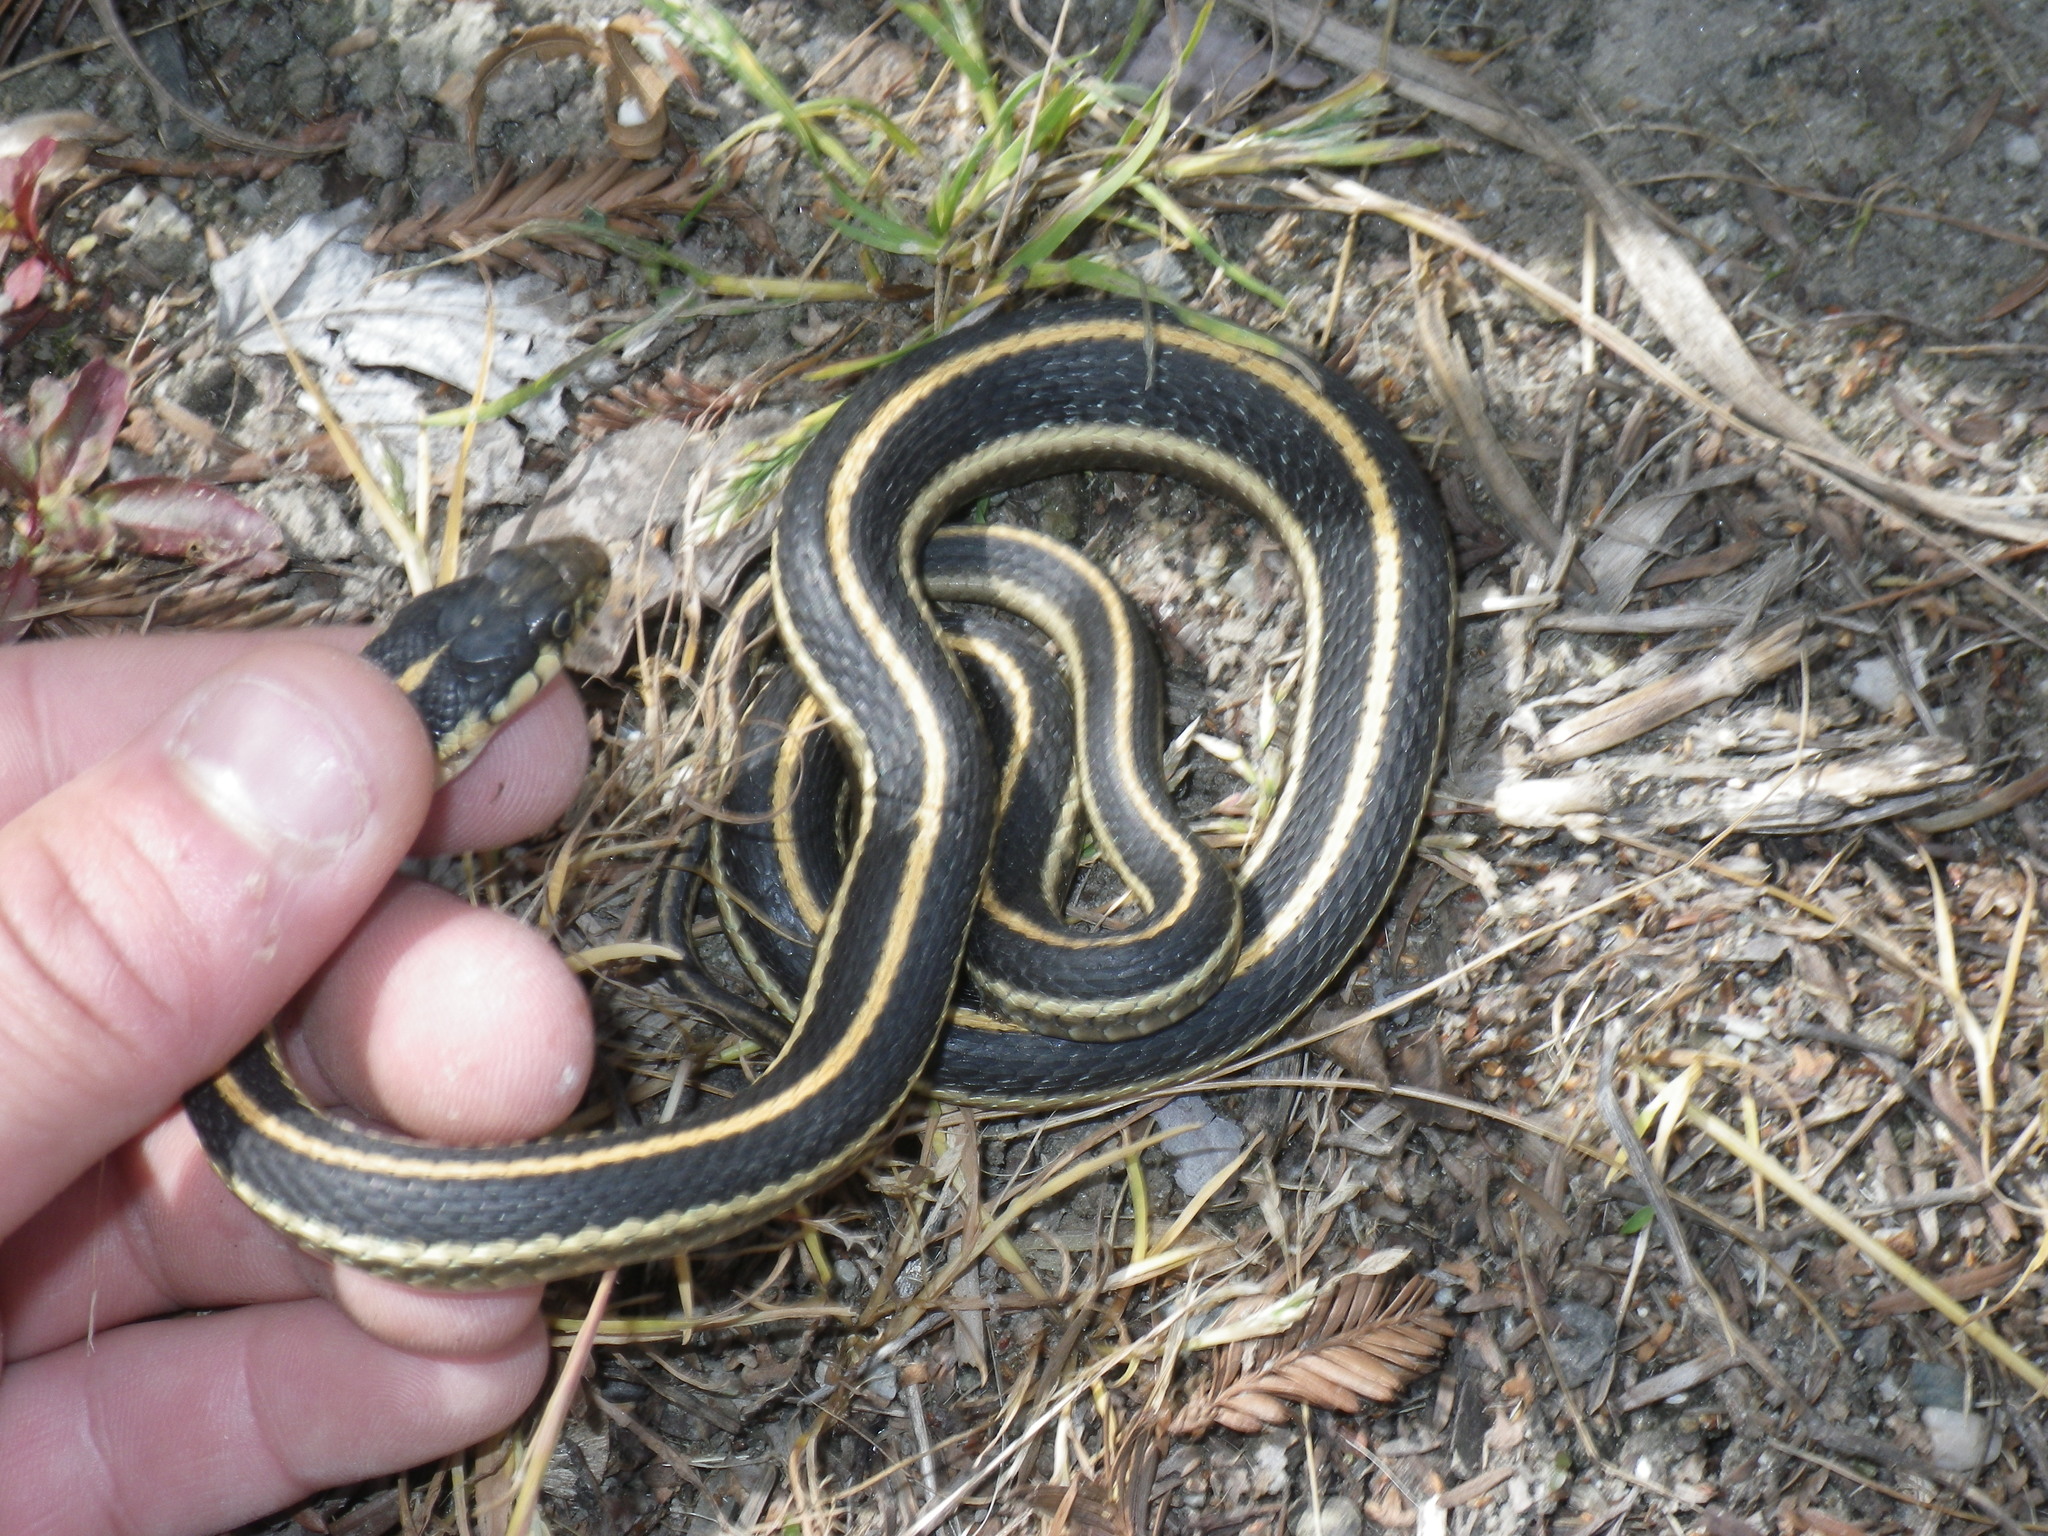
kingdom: Animalia
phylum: Chordata
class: Squamata
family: Colubridae
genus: Thamnophis
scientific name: Thamnophis elegans
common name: Western terrestrial garter snake
